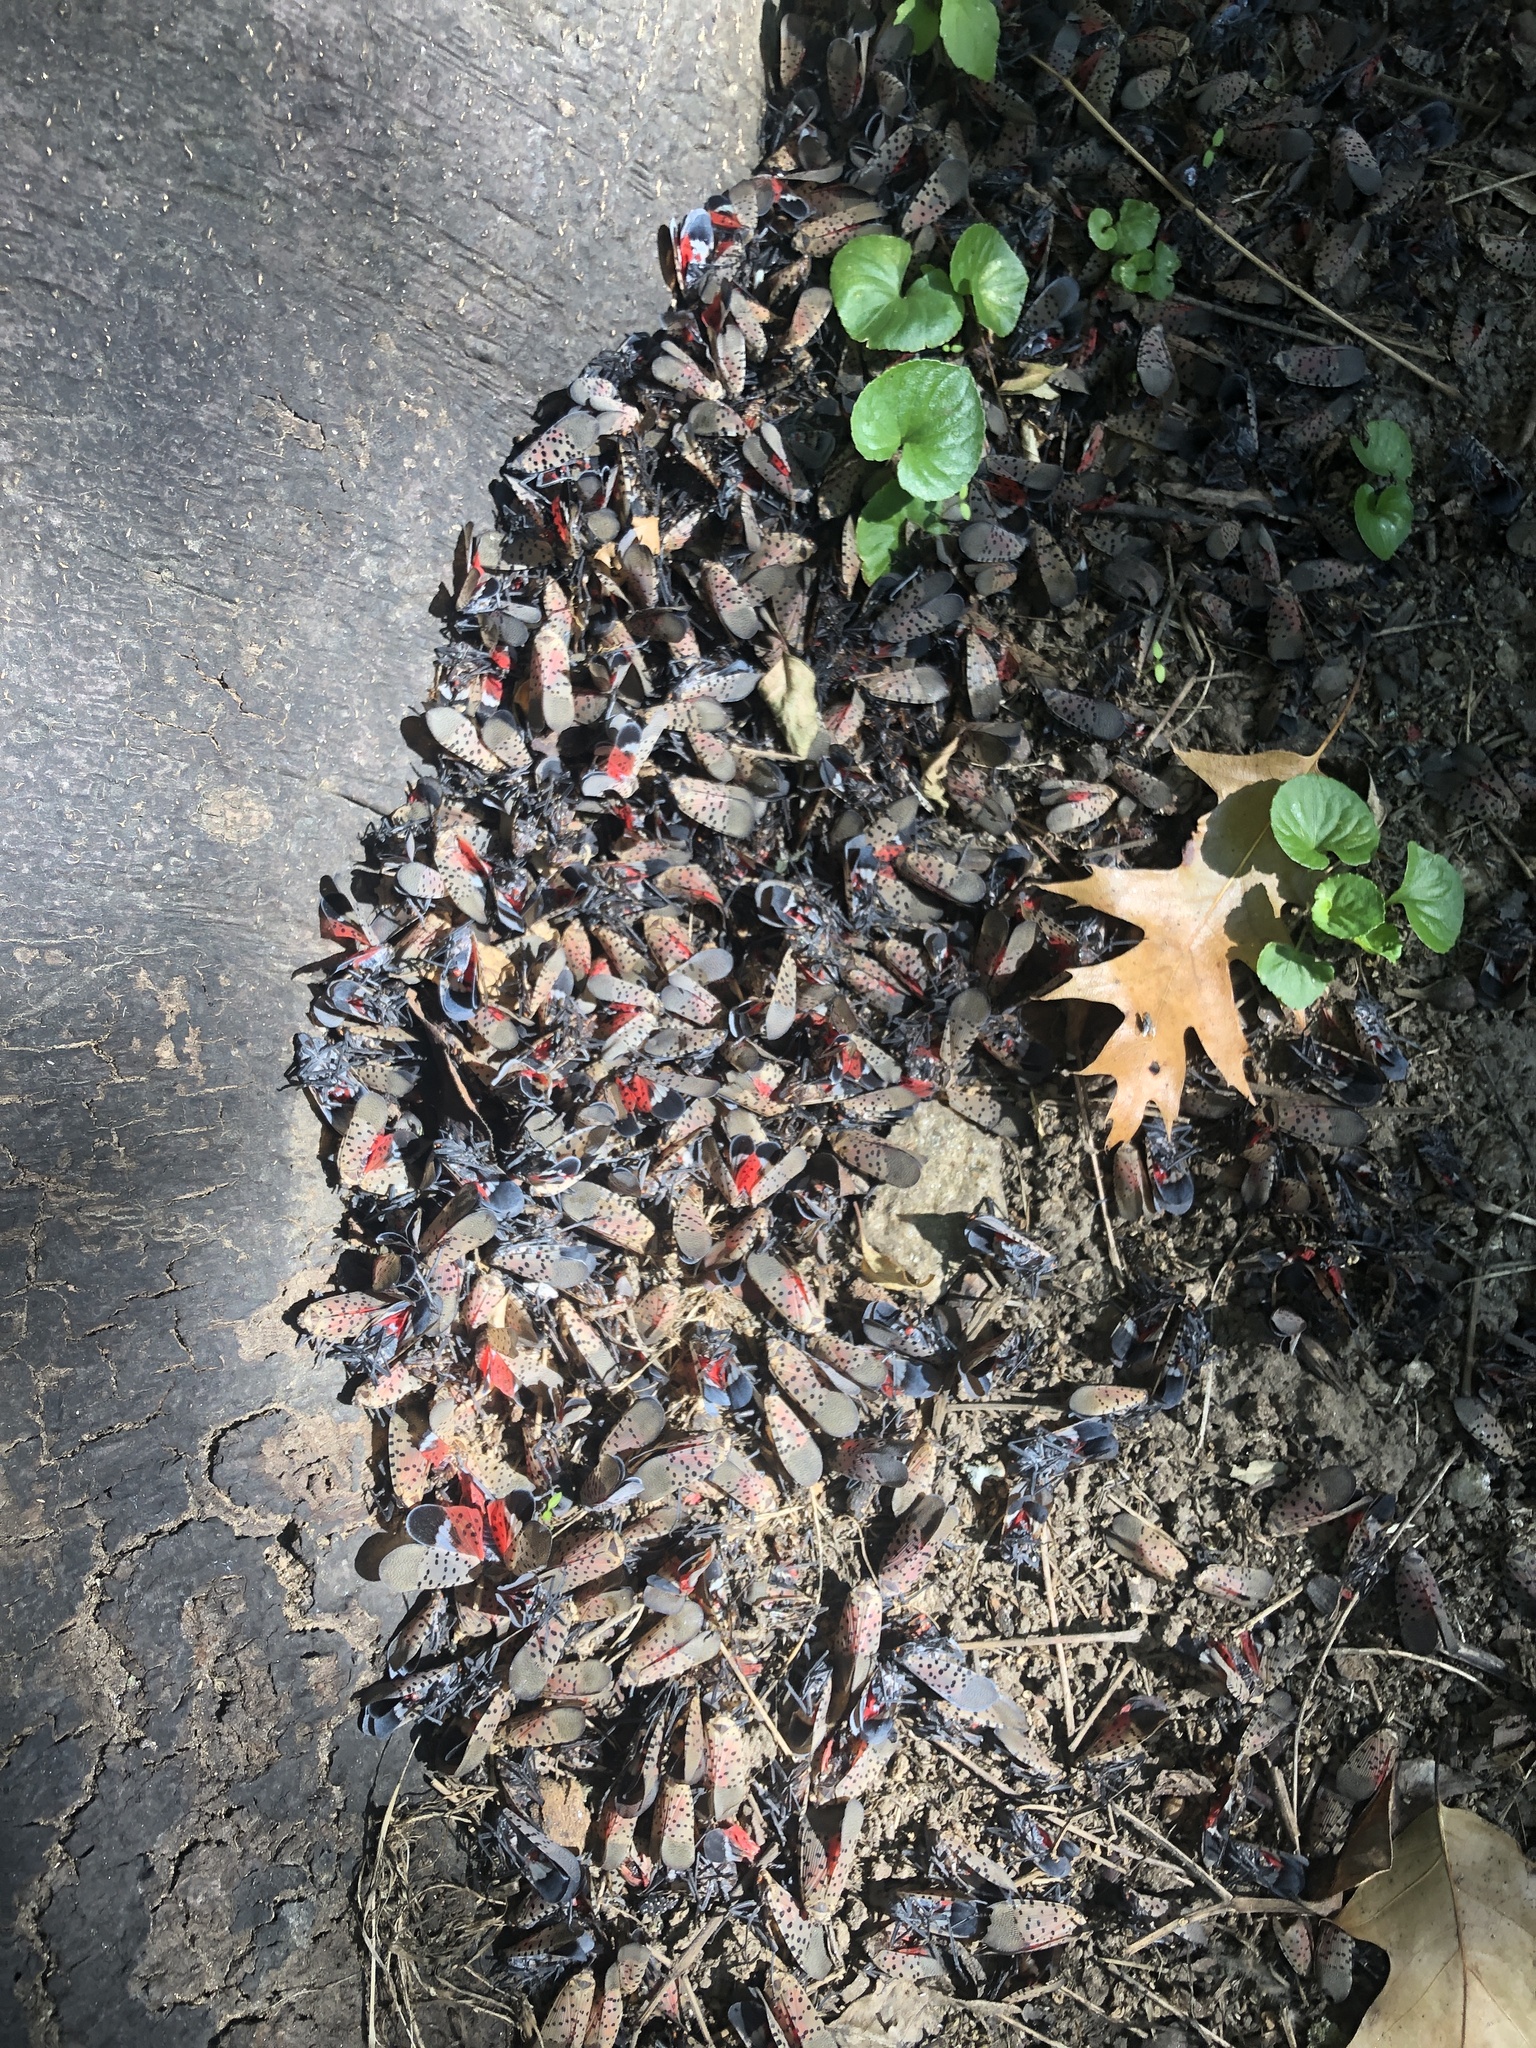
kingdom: Animalia
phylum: Arthropoda
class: Insecta
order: Hemiptera
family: Fulgoridae
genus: Lycorma
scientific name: Lycorma delicatula
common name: Spotted lanternfly
